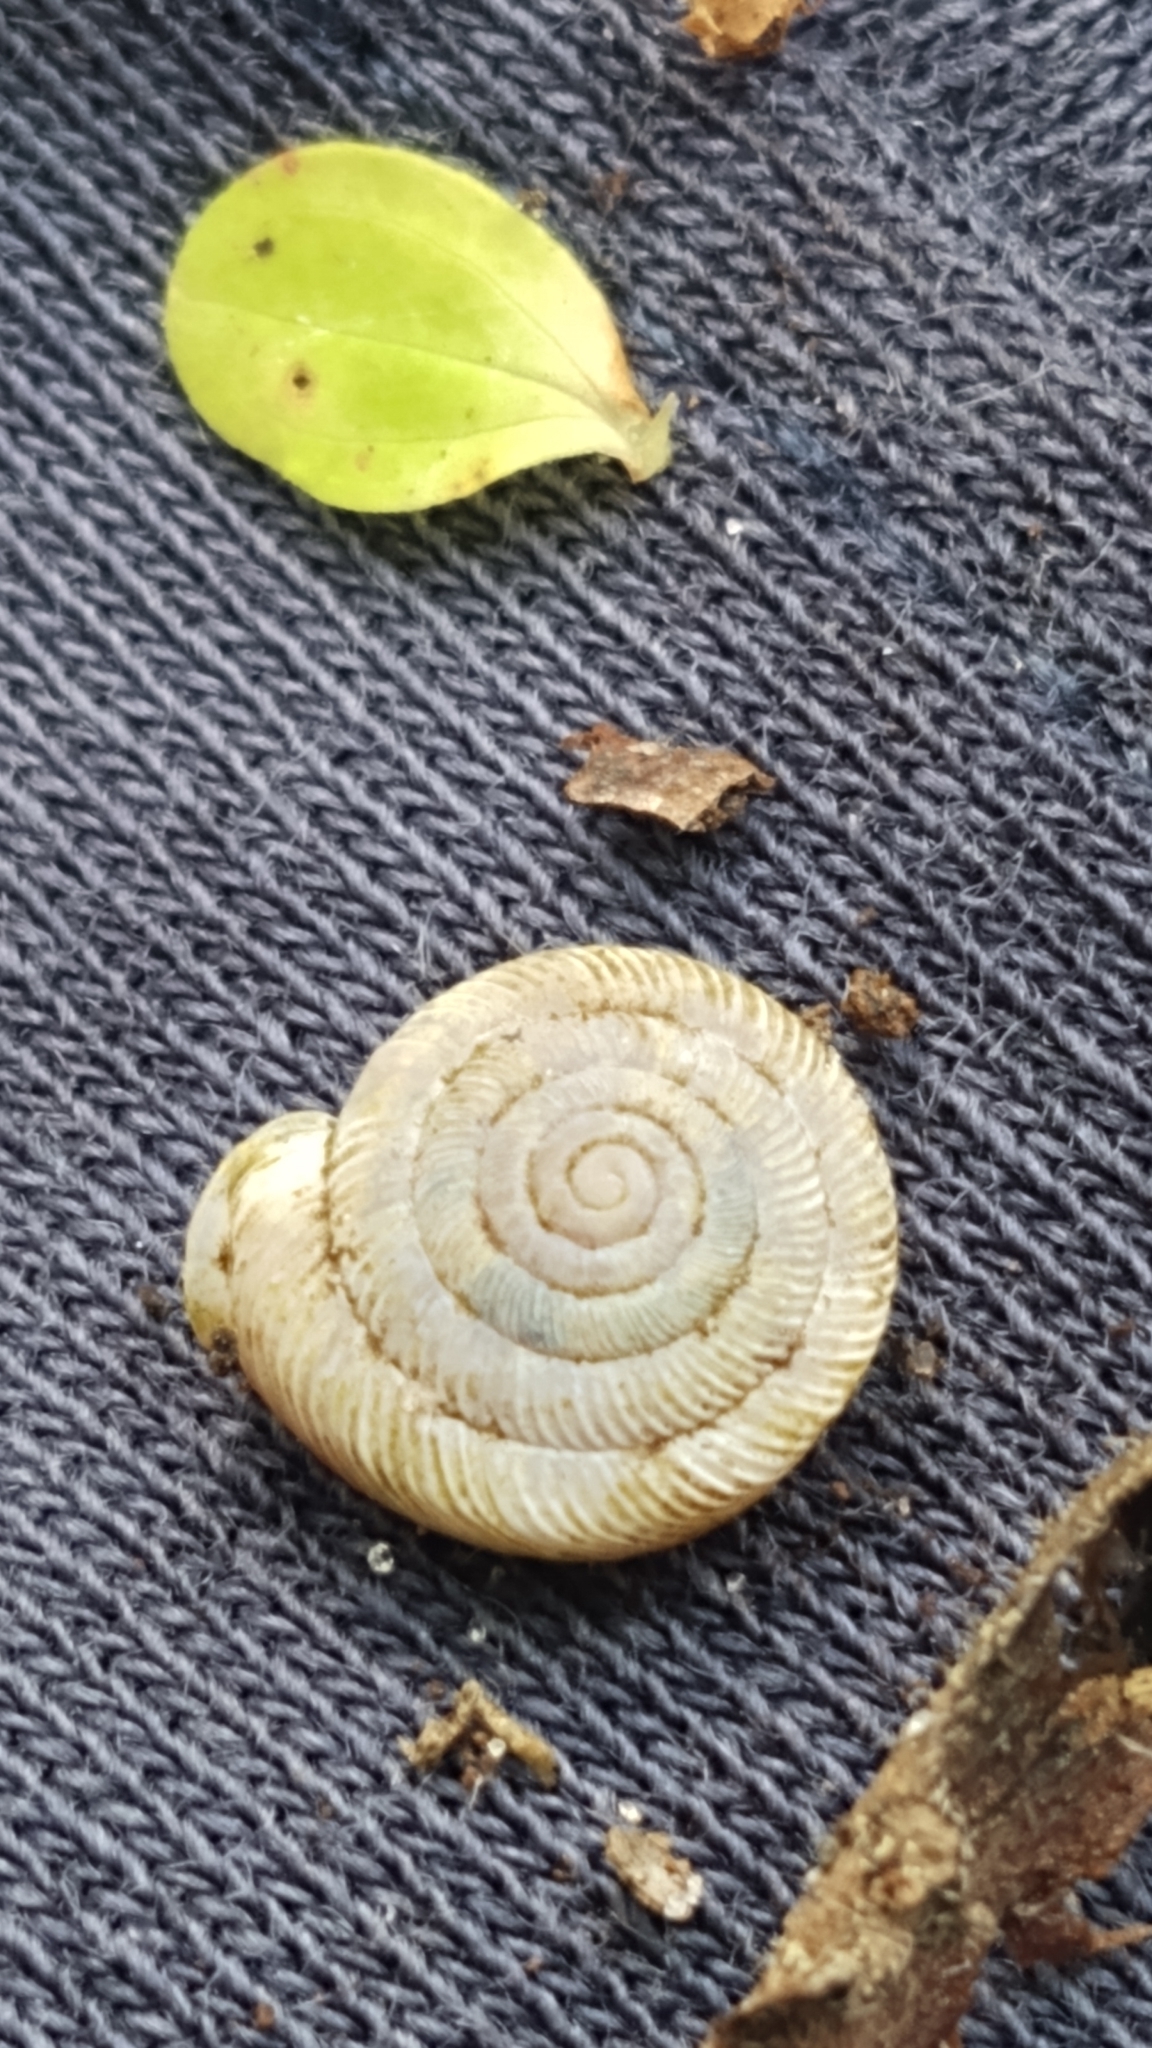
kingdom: Animalia
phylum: Mollusca
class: Gastropoda
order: Stylommatophora
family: Polygyridae
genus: Polygyra
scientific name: Polygyra cereolus
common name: Southern flatcone snail
